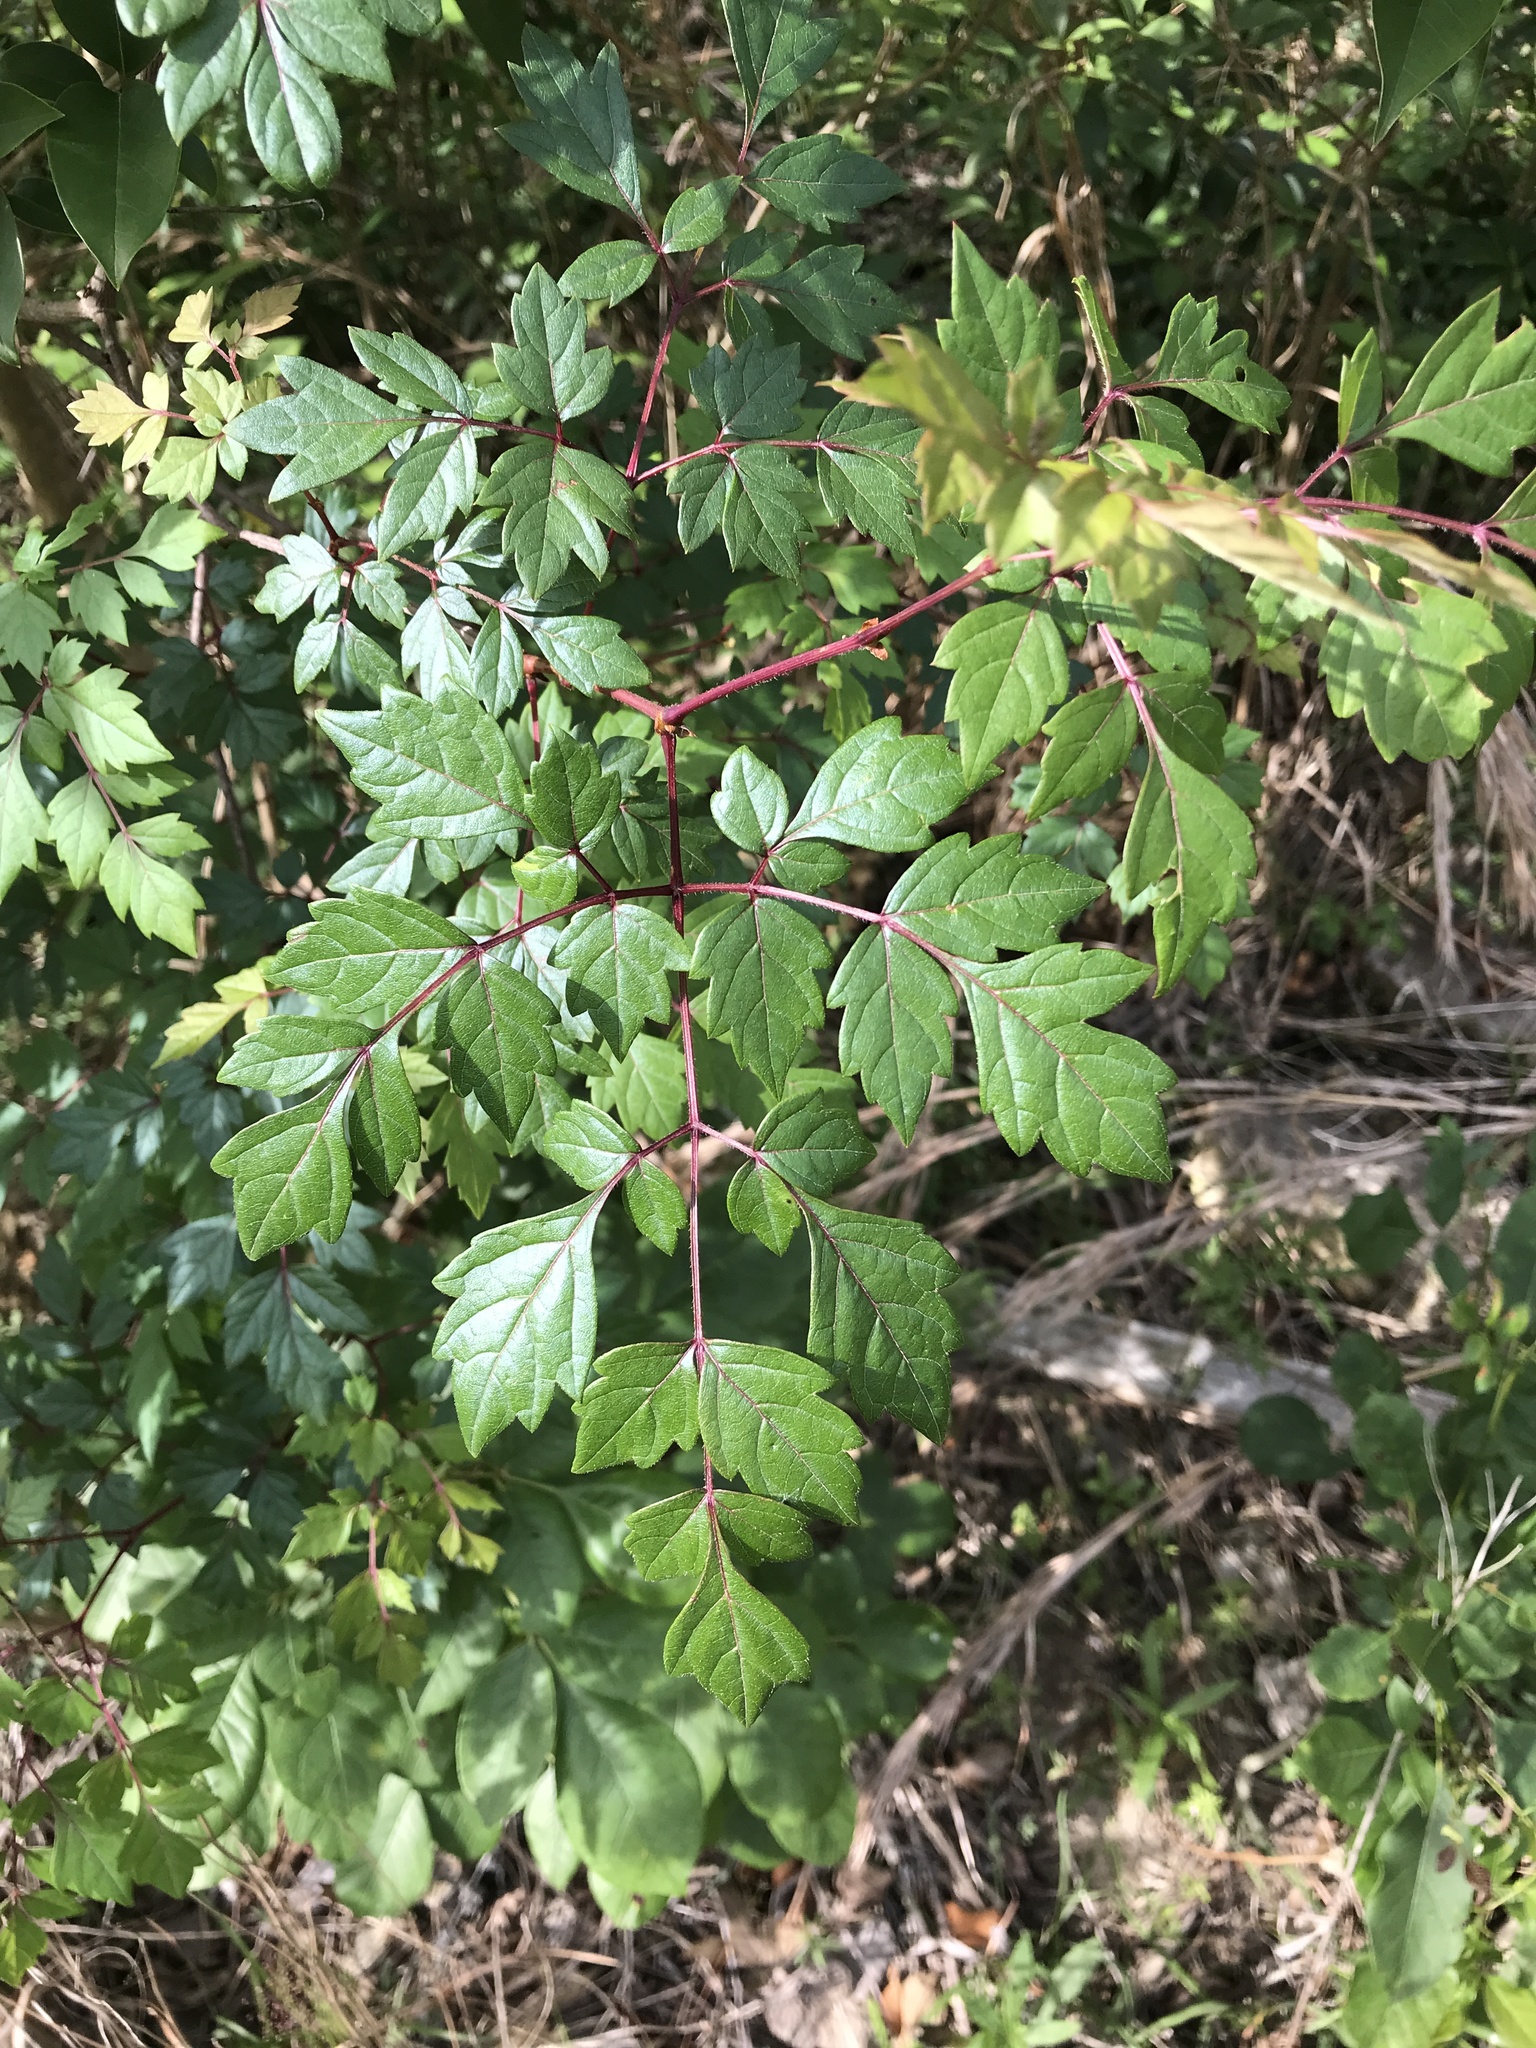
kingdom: Plantae
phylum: Tracheophyta
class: Magnoliopsida
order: Vitales
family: Vitaceae
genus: Nekemias
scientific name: Nekemias arborea
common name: Peppervine
